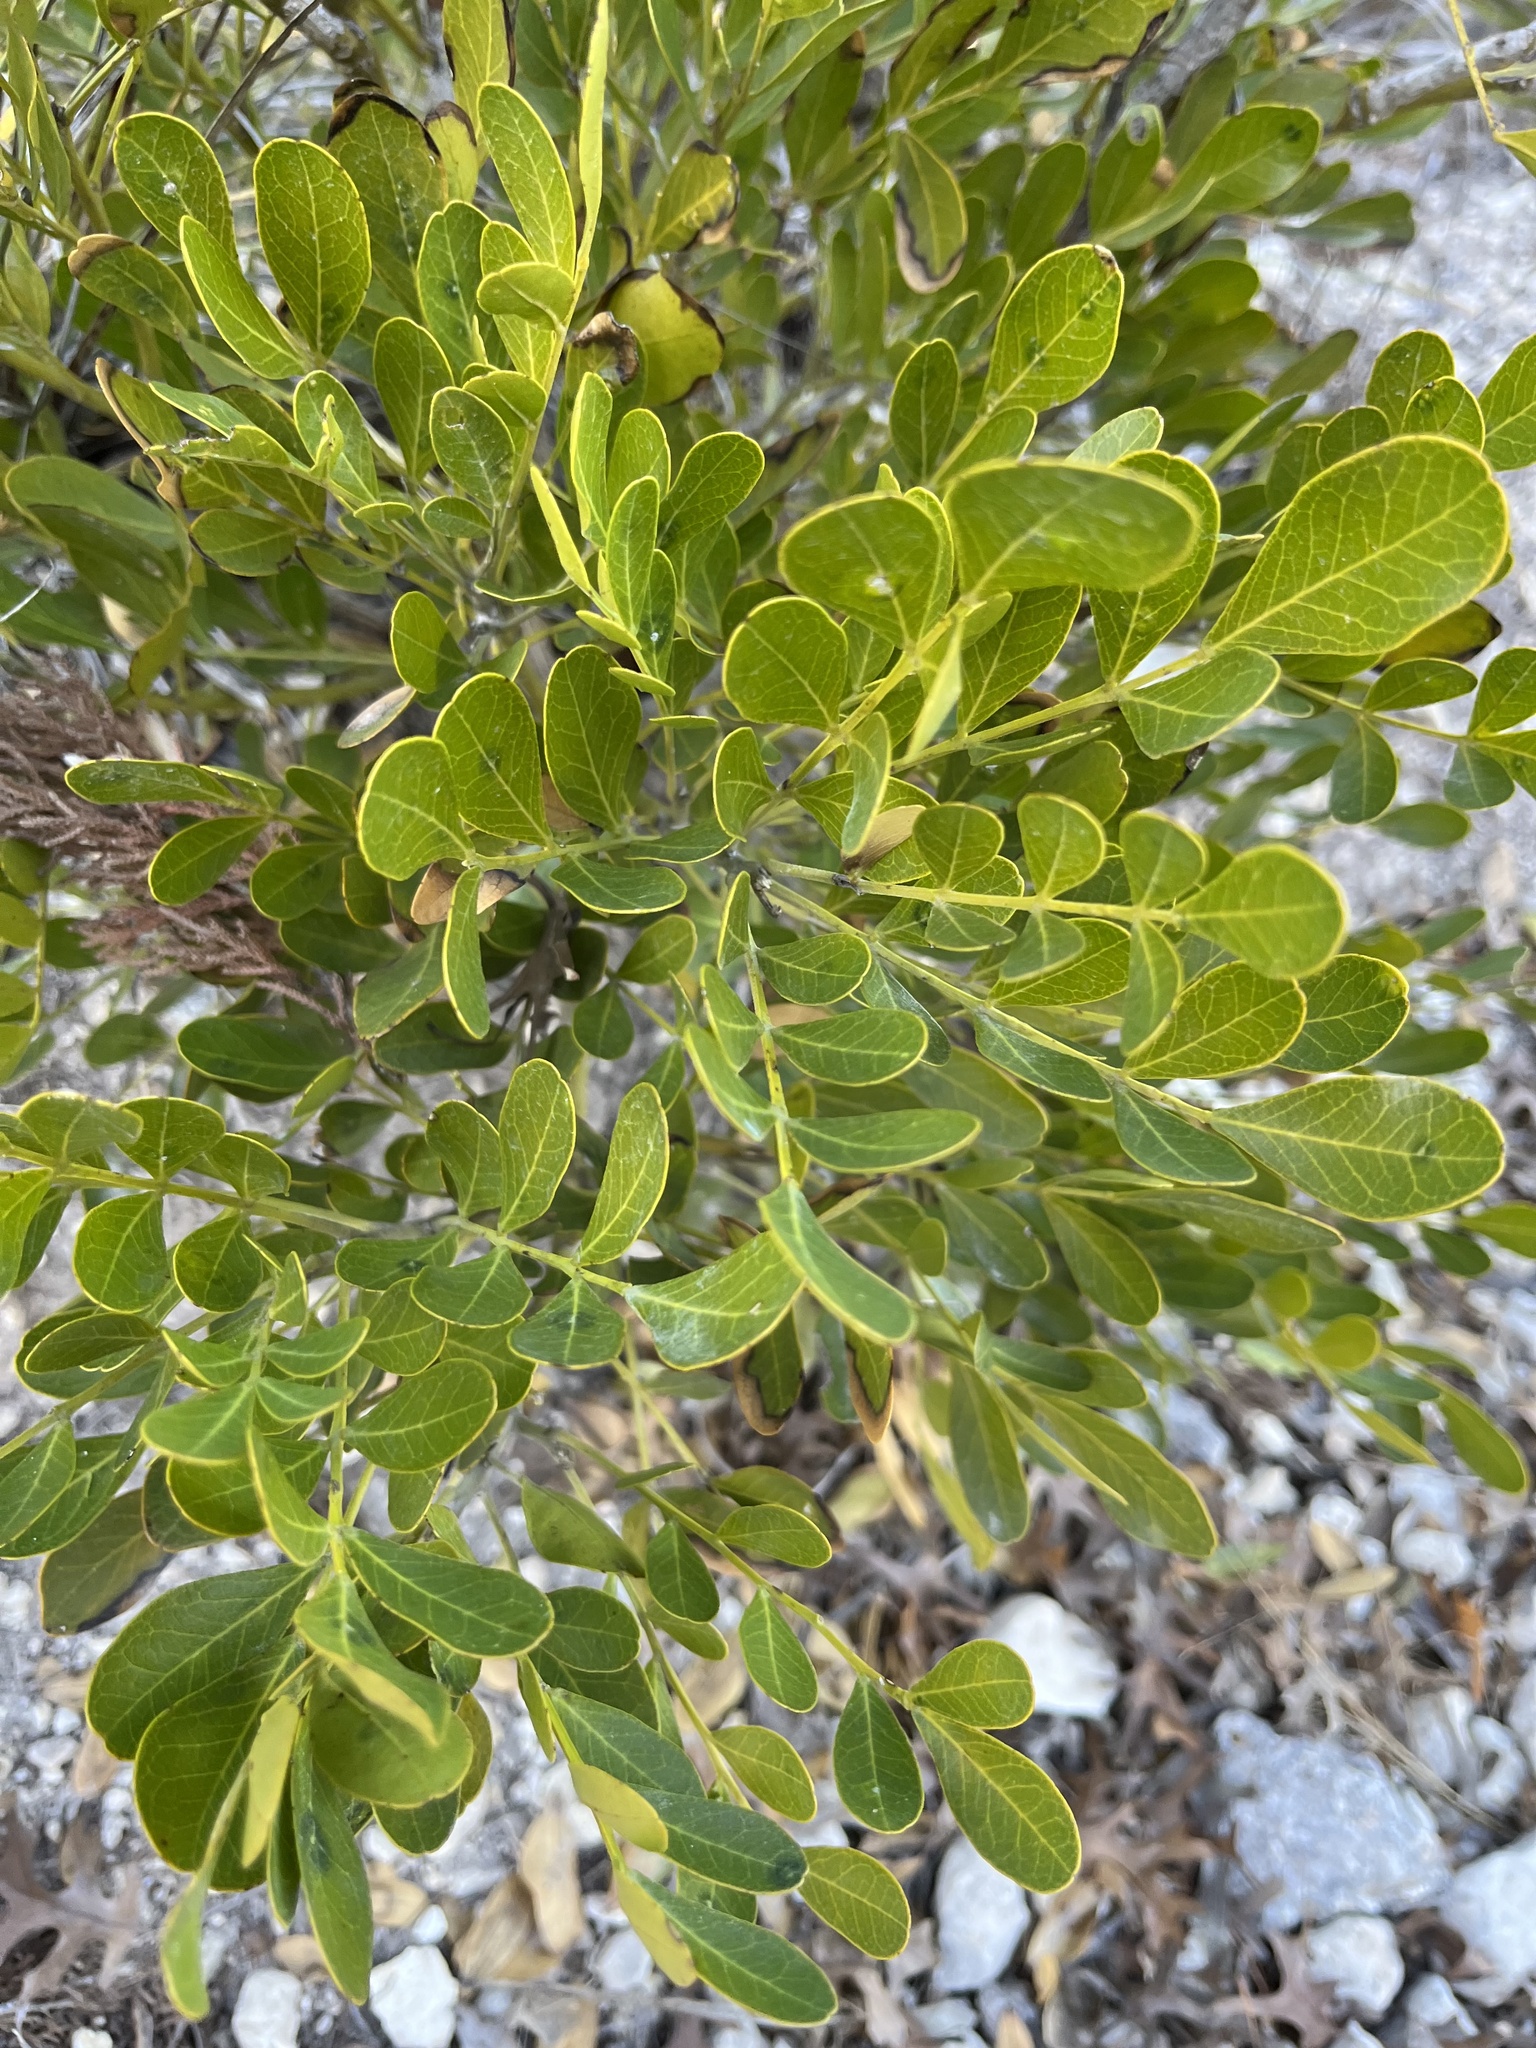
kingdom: Plantae
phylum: Tracheophyta
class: Magnoliopsida
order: Fabales
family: Fabaceae
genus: Dermatophyllum
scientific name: Dermatophyllum secundiflorum
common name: Texas-mountain-laurel
